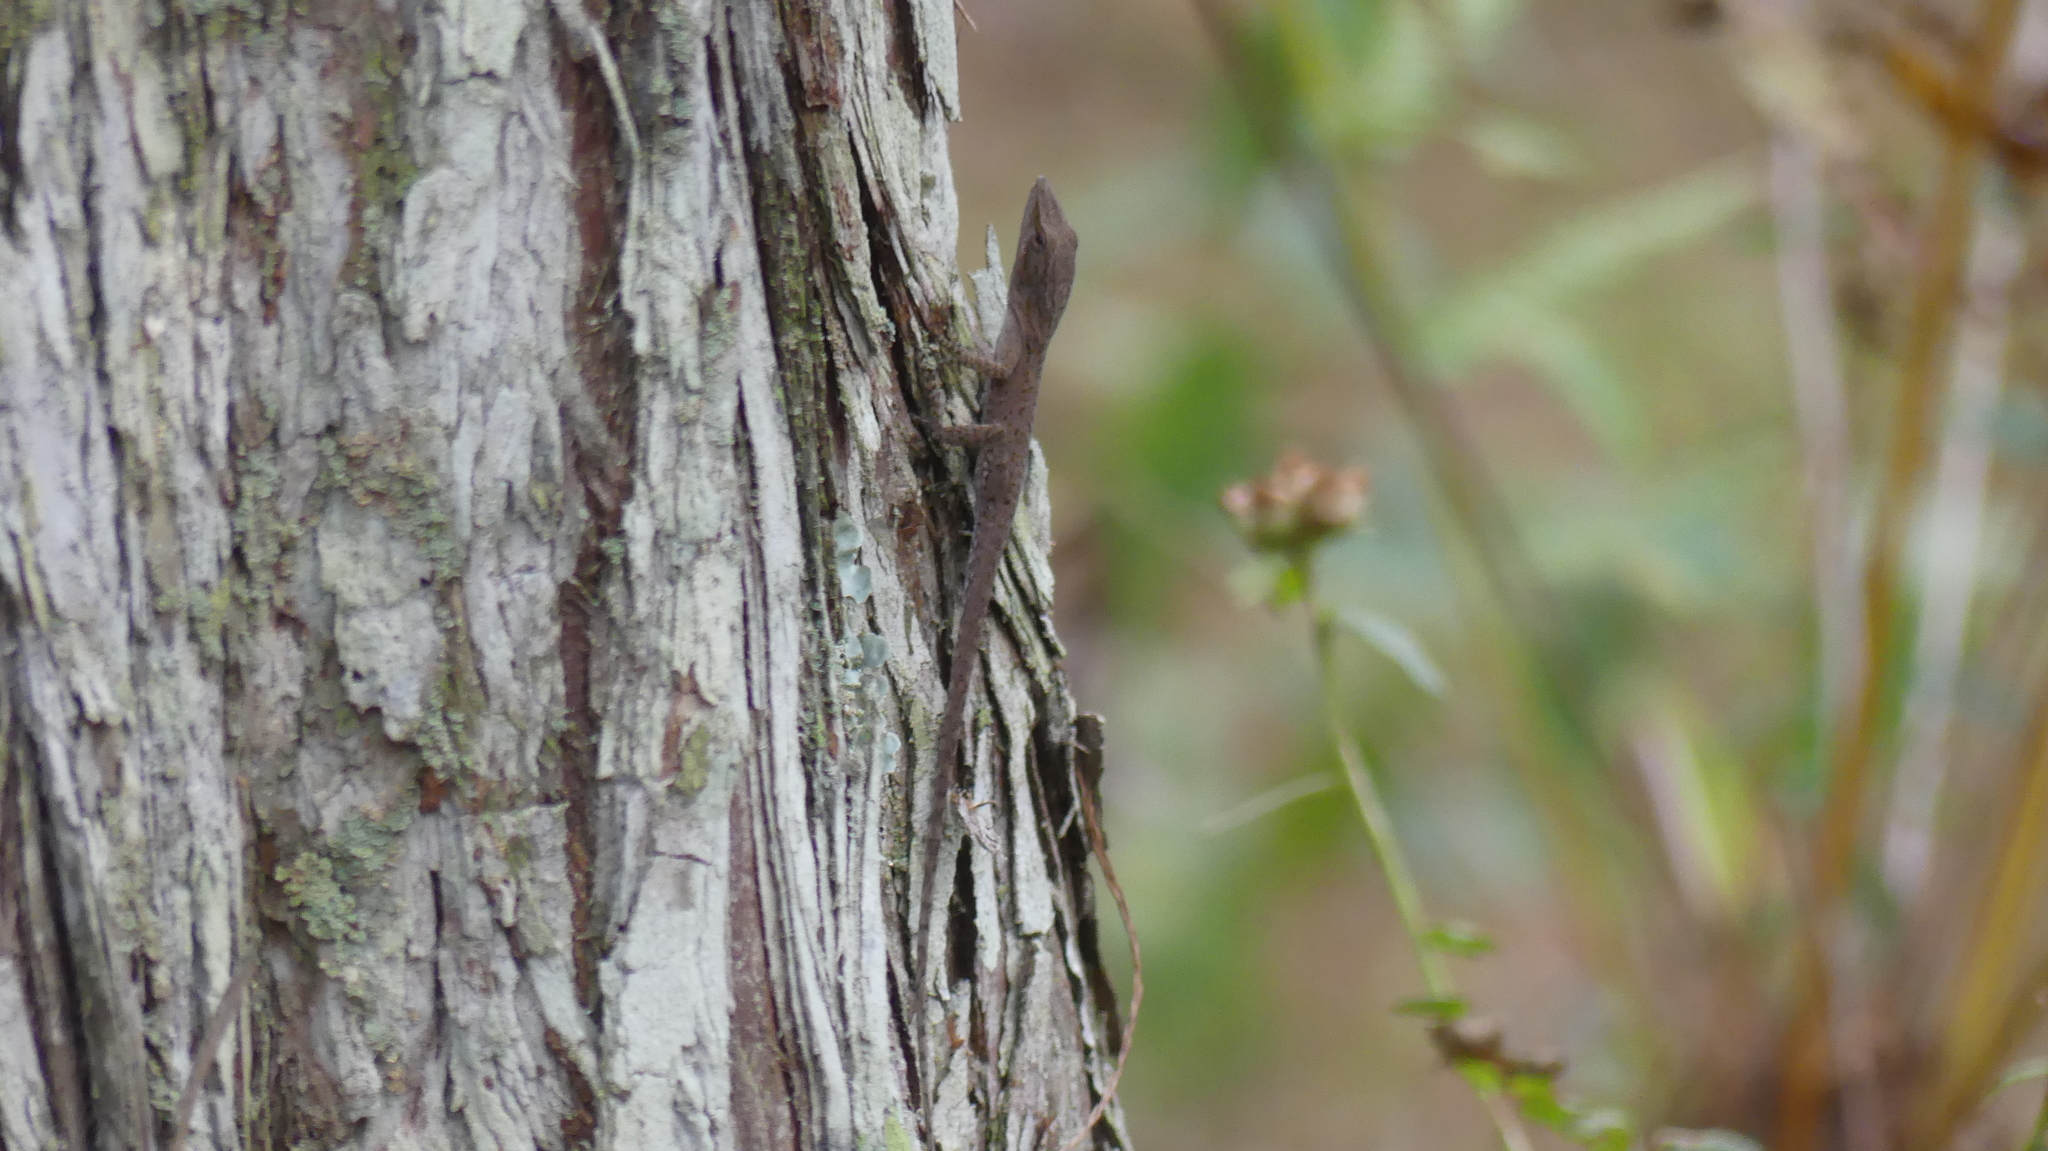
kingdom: Animalia
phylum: Chordata
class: Squamata
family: Dactyloidae
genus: Anolis
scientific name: Anolis carolinensis
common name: Green anole
